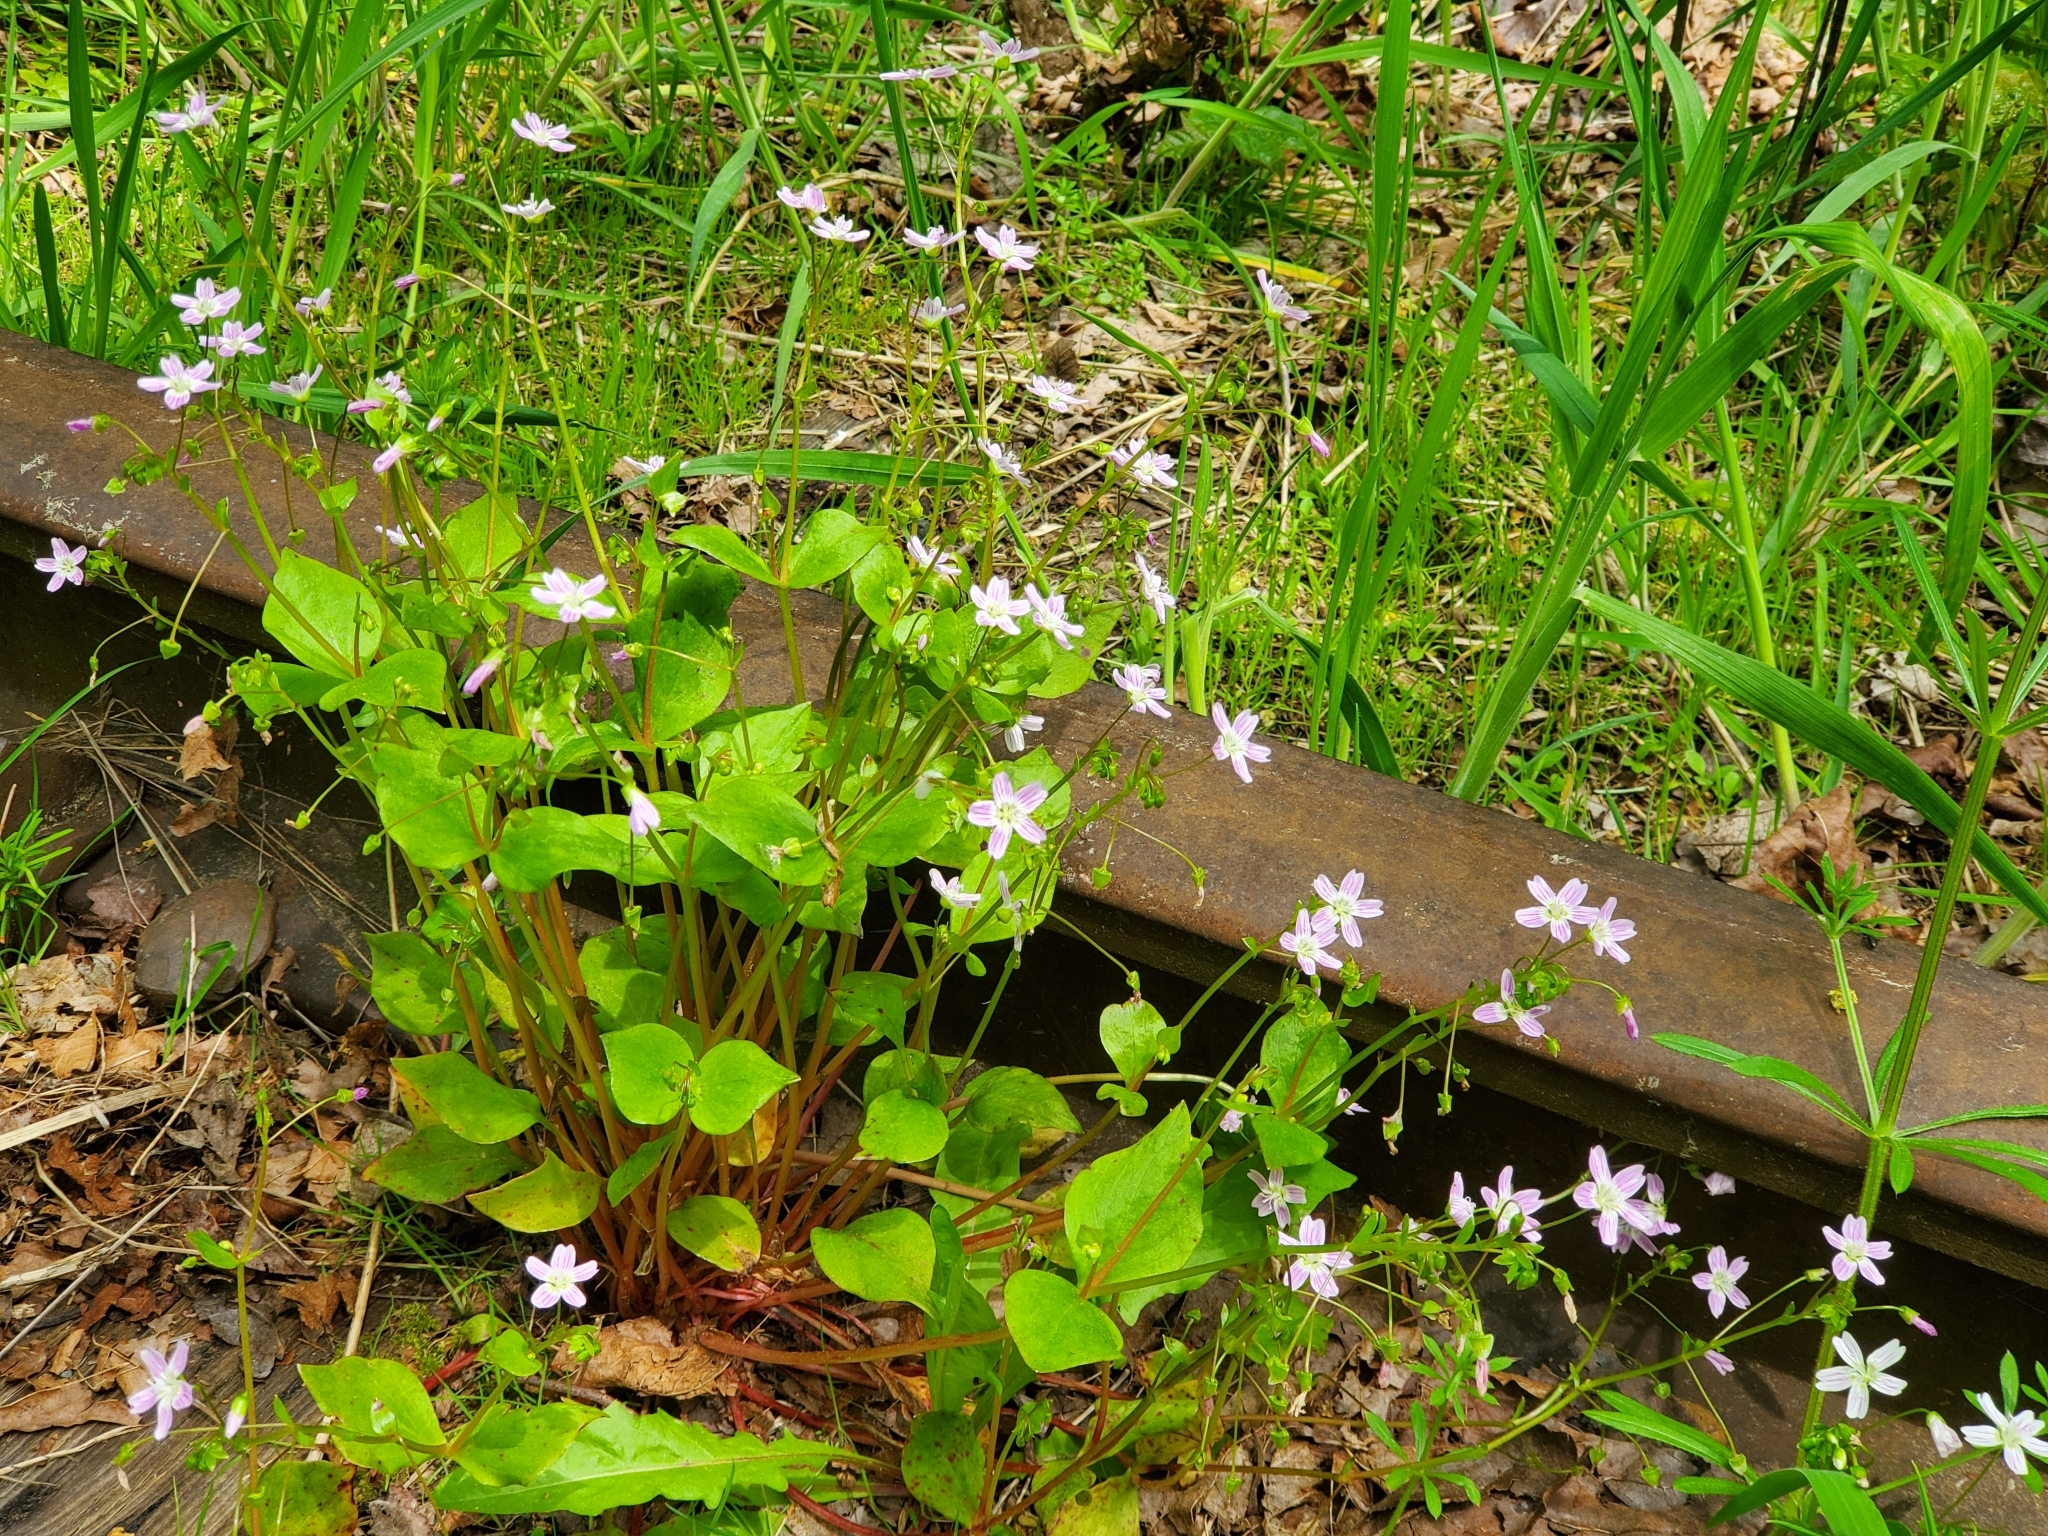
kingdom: Plantae
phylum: Tracheophyta
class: Magnoliopsida
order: Caryophyllales
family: Montiaceae
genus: Claytonia
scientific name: Claytonia sibirica
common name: Pink purslane
